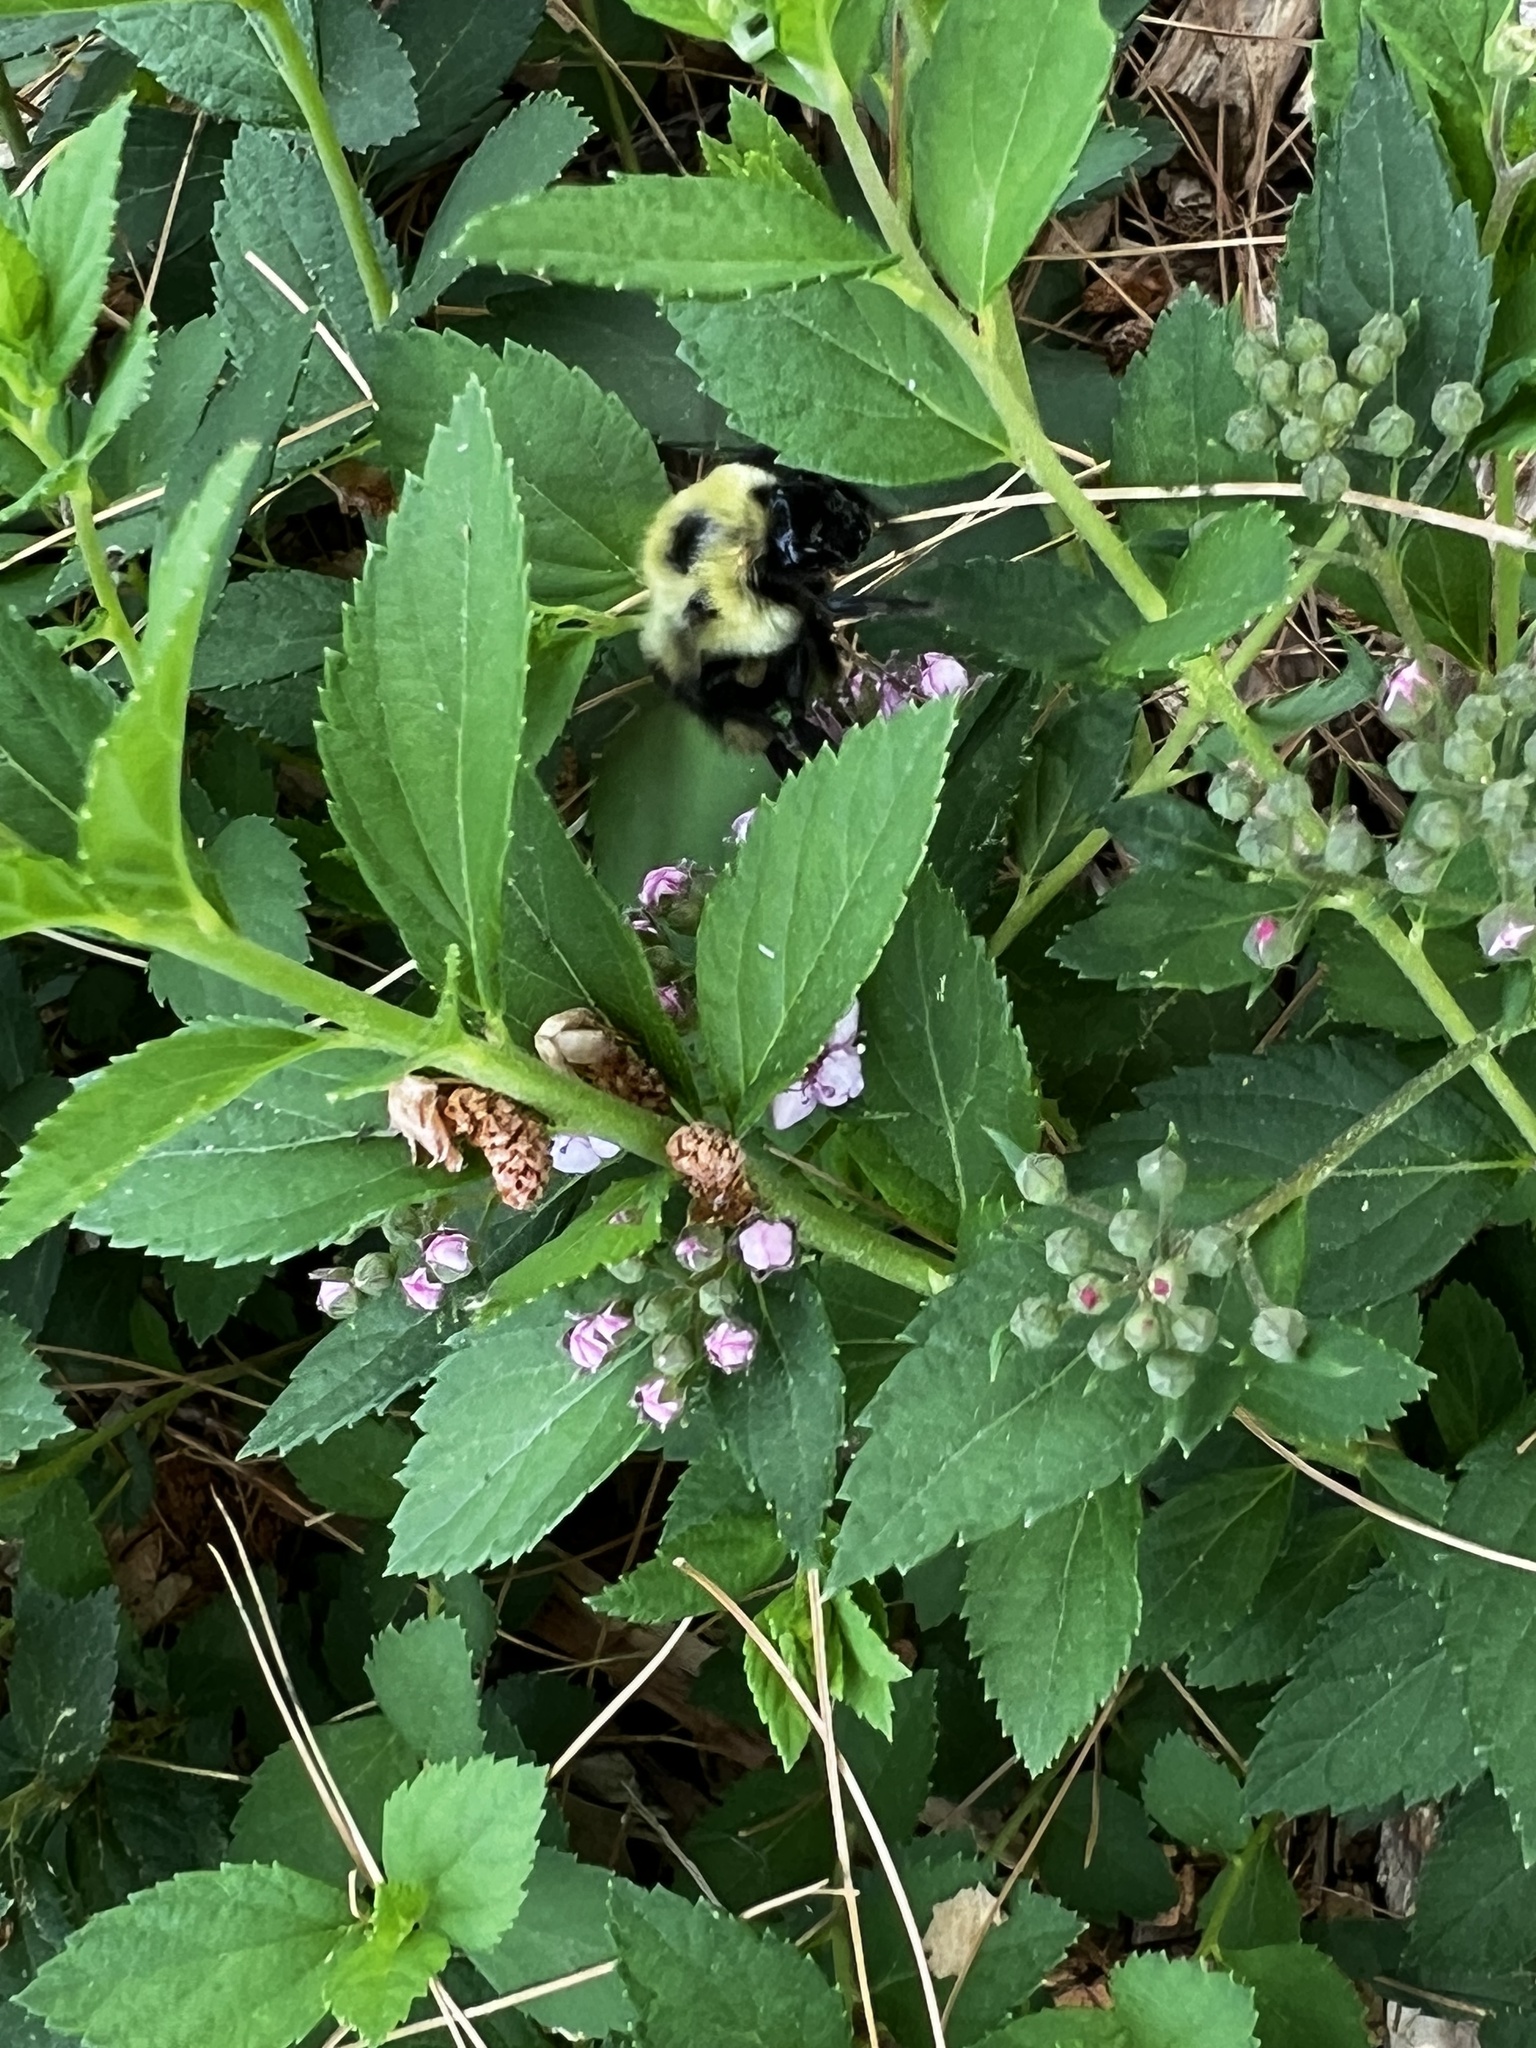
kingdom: Animalia
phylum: Arthropoda
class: Insecta
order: Hymenoptera
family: Apidae
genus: Bombus
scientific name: Bombus bimaculatus
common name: Two-spotted bumble bee
